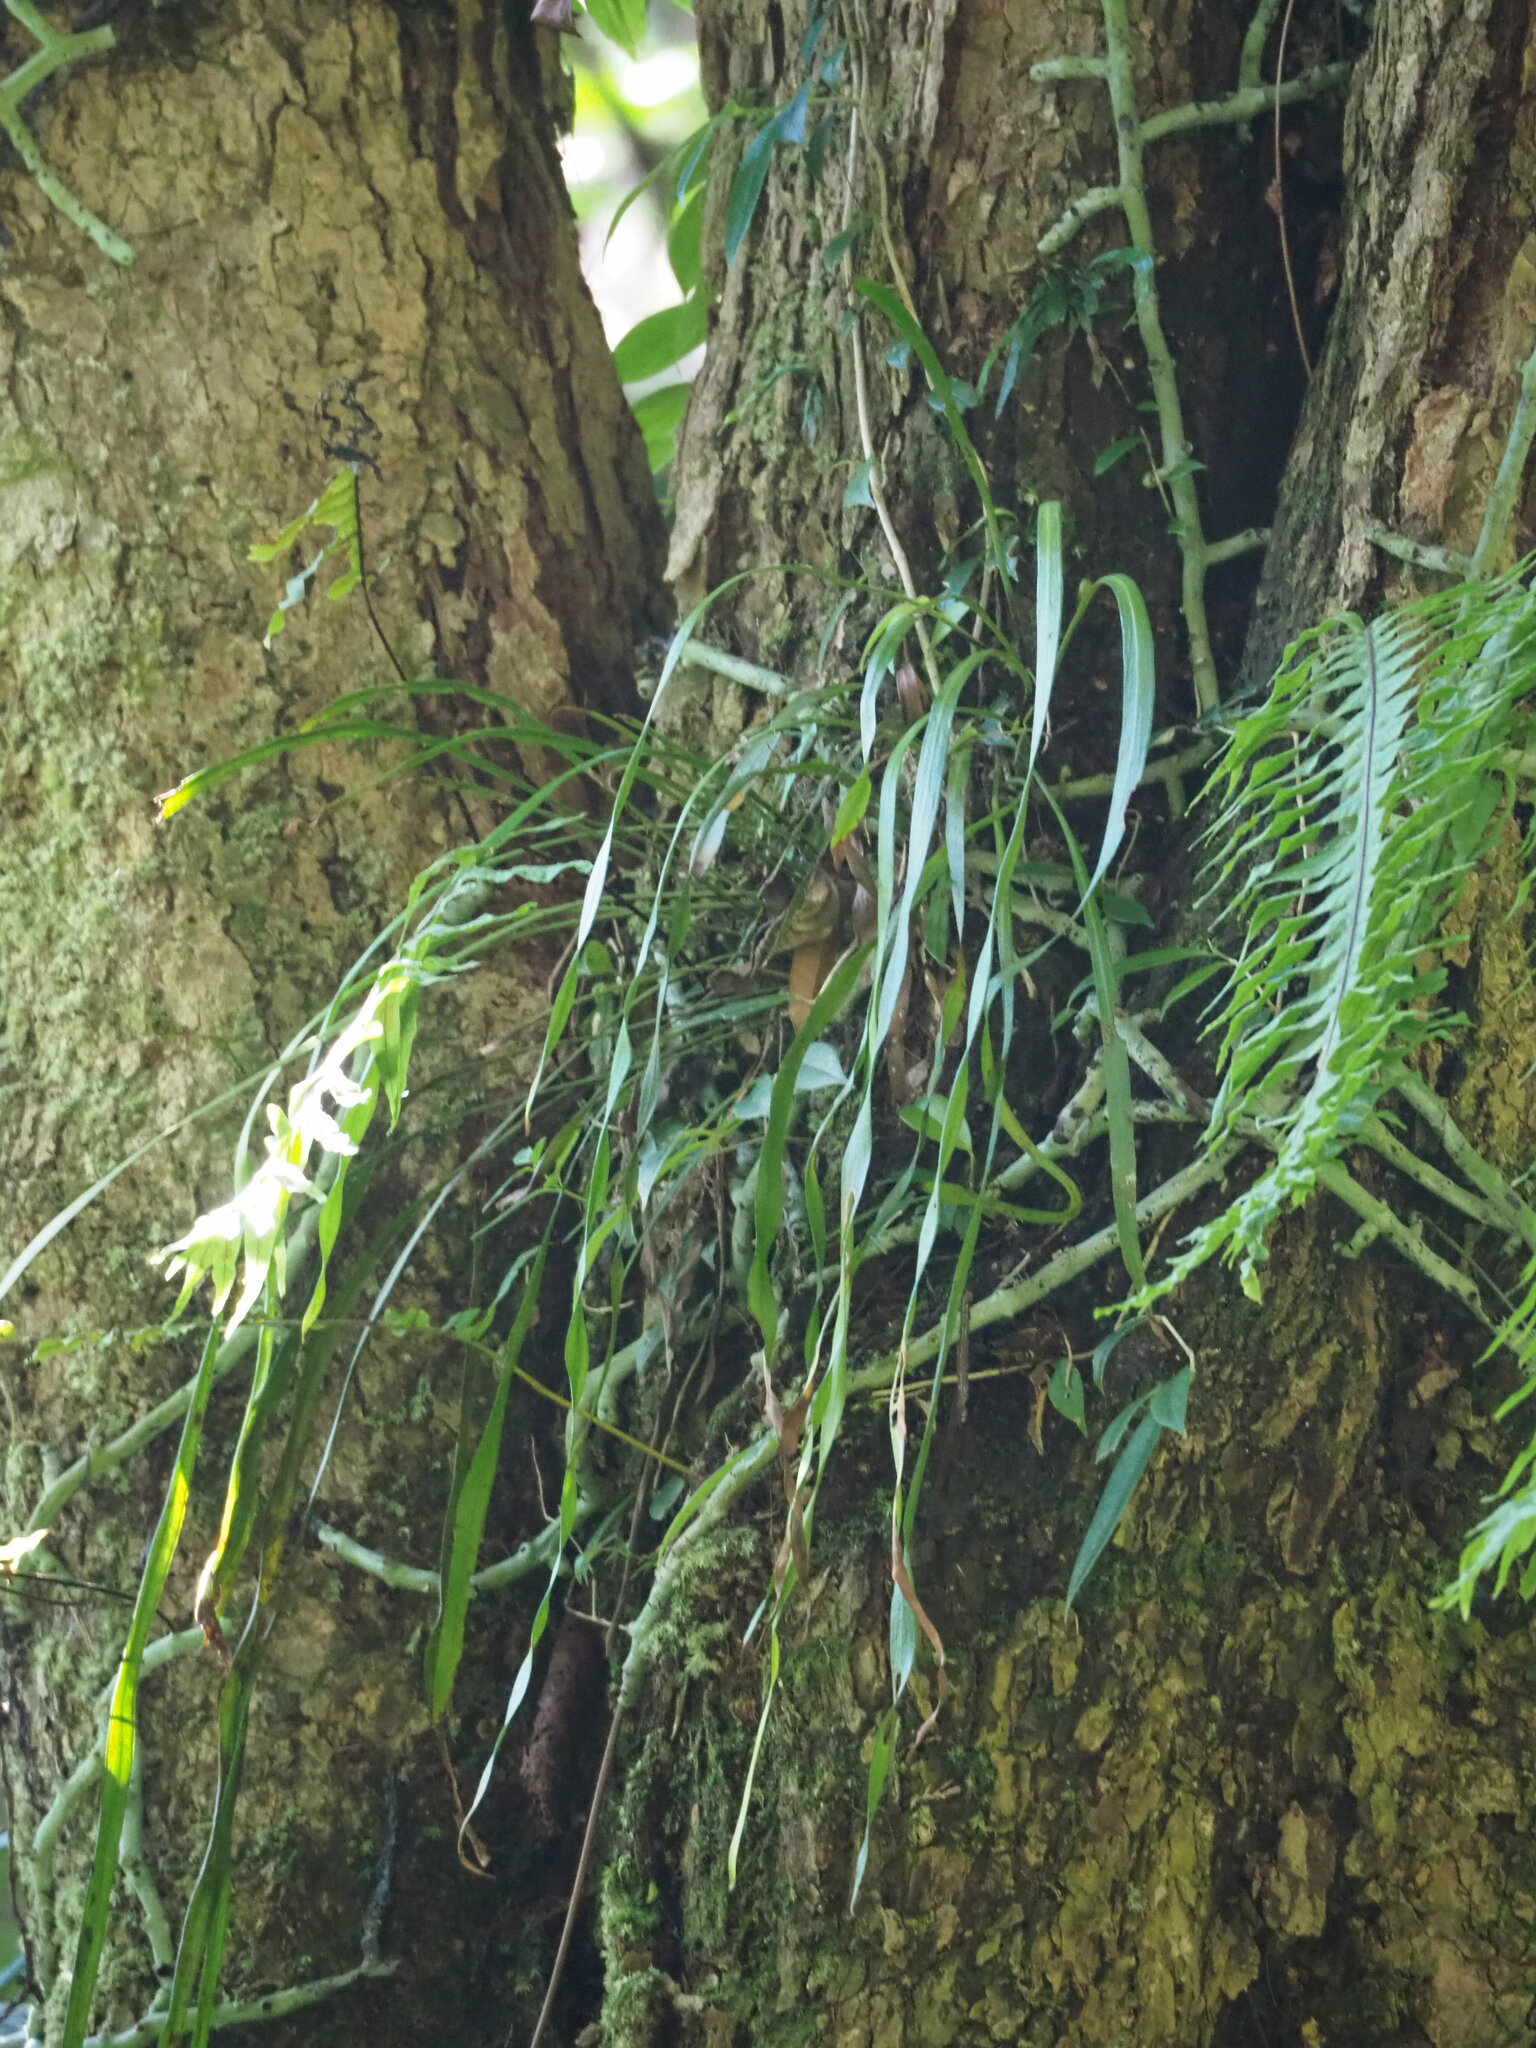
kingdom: Plantae
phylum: Tracheophyta
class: Polypodiopsida
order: Polypodiales
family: Pteridaceae
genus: Haplopteris
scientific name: Haplopteris elongata
